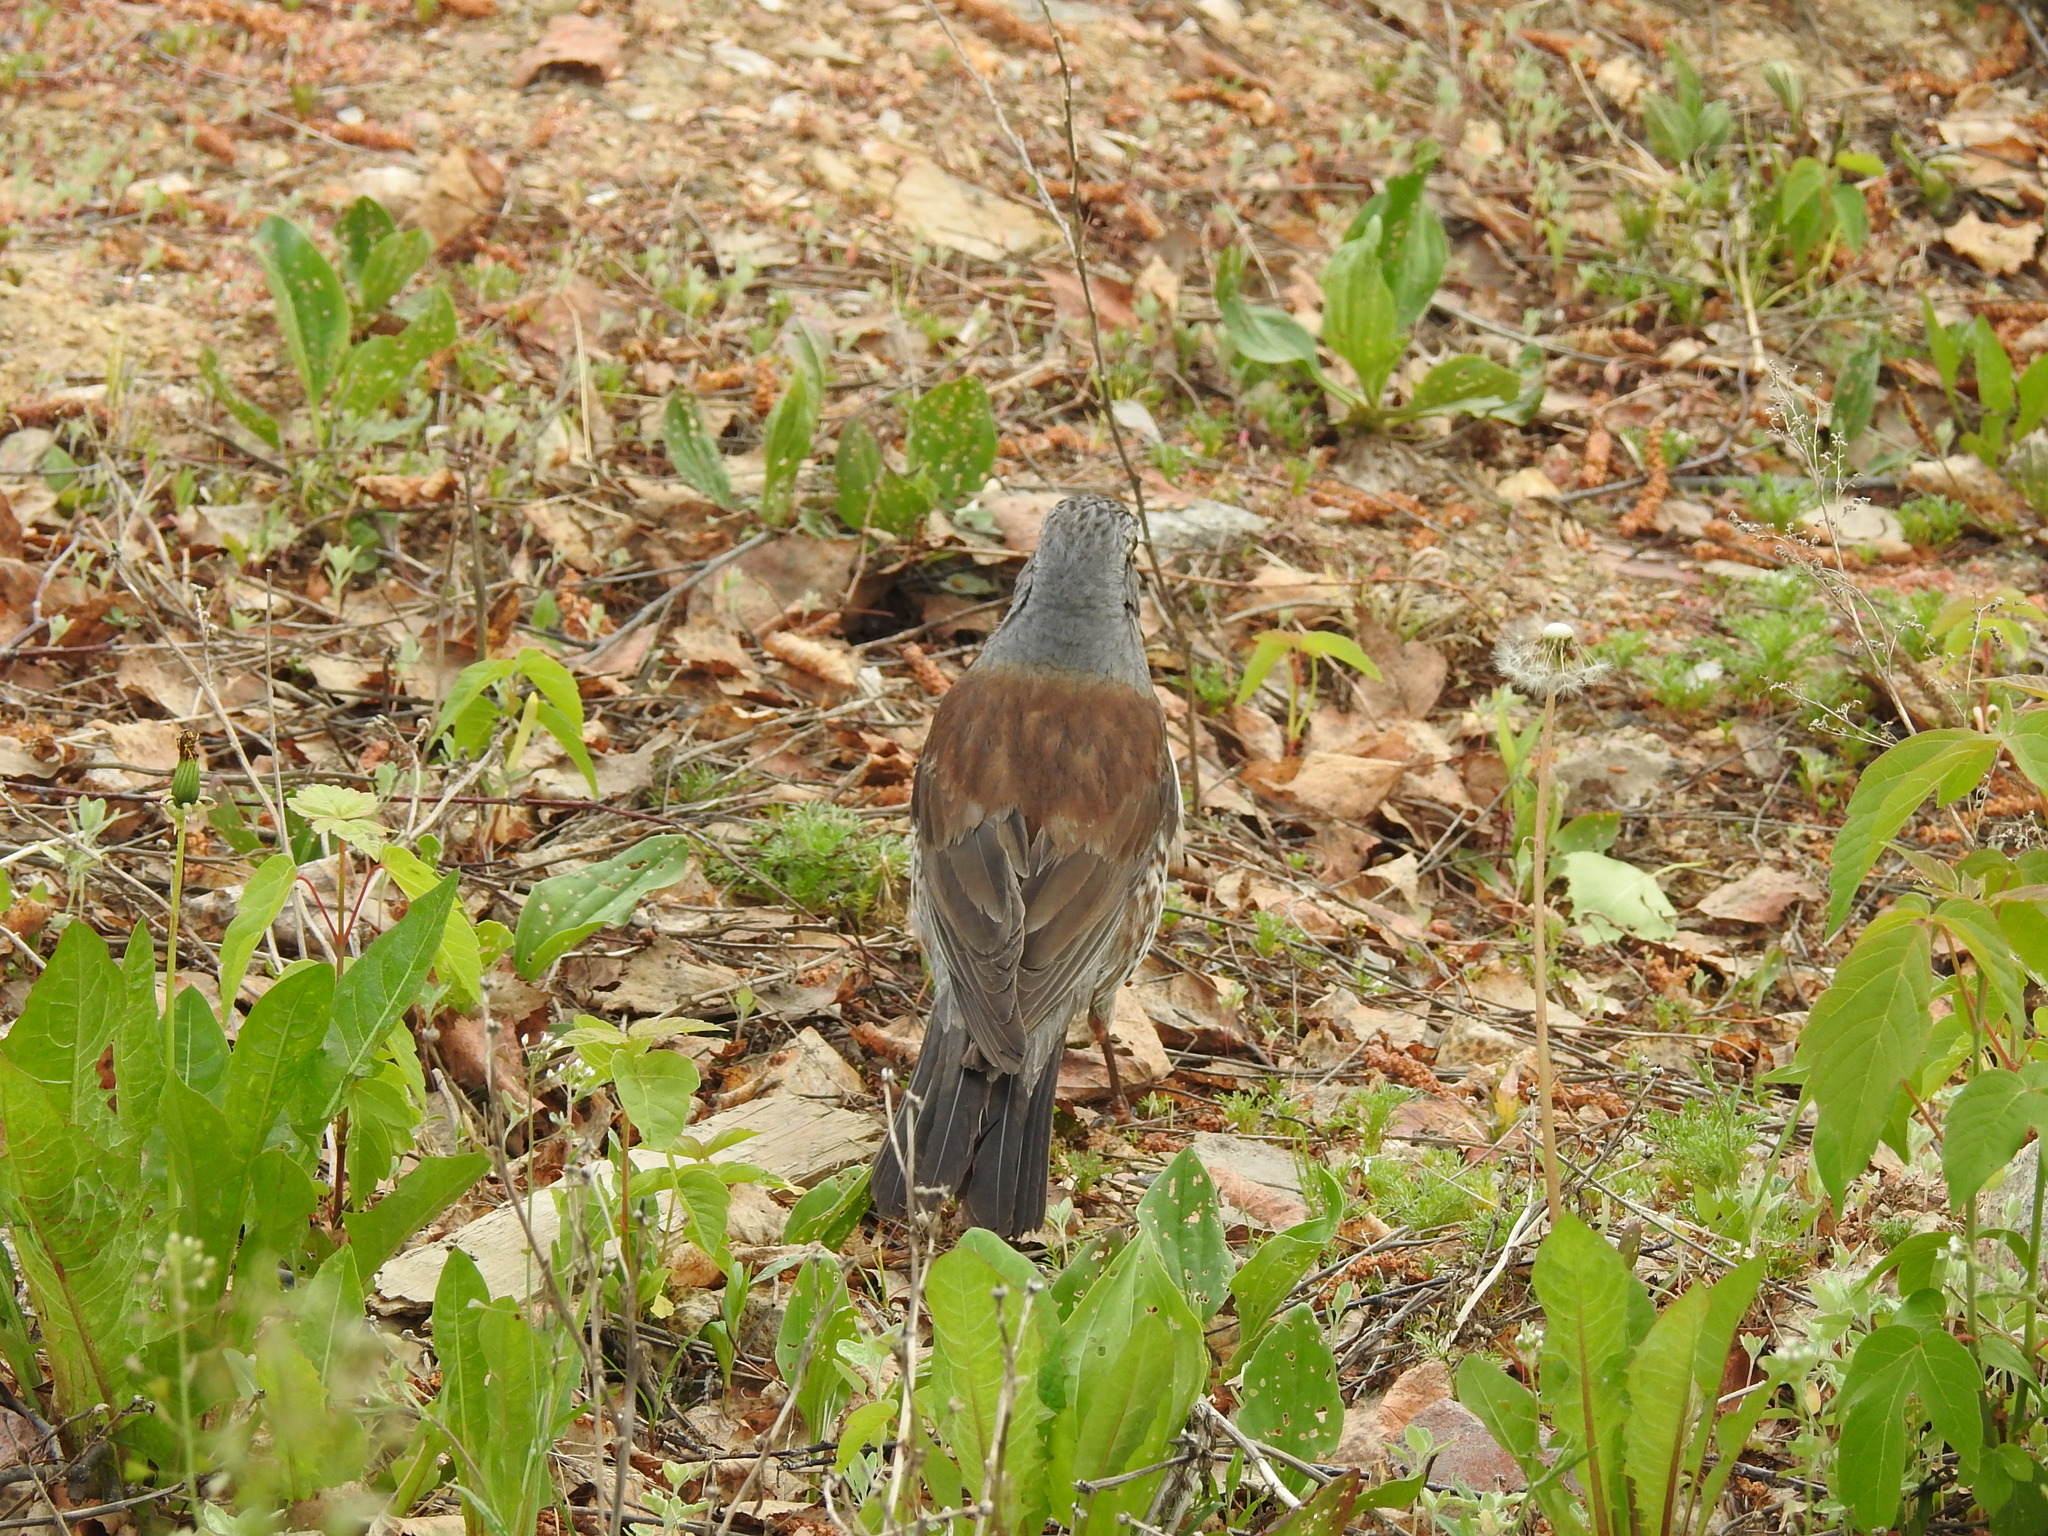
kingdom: Animalia
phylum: Chordata
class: Aves
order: Passeriformes
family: Turdidae
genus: Turdus
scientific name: Turdus pilaris
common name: Fieldfare
